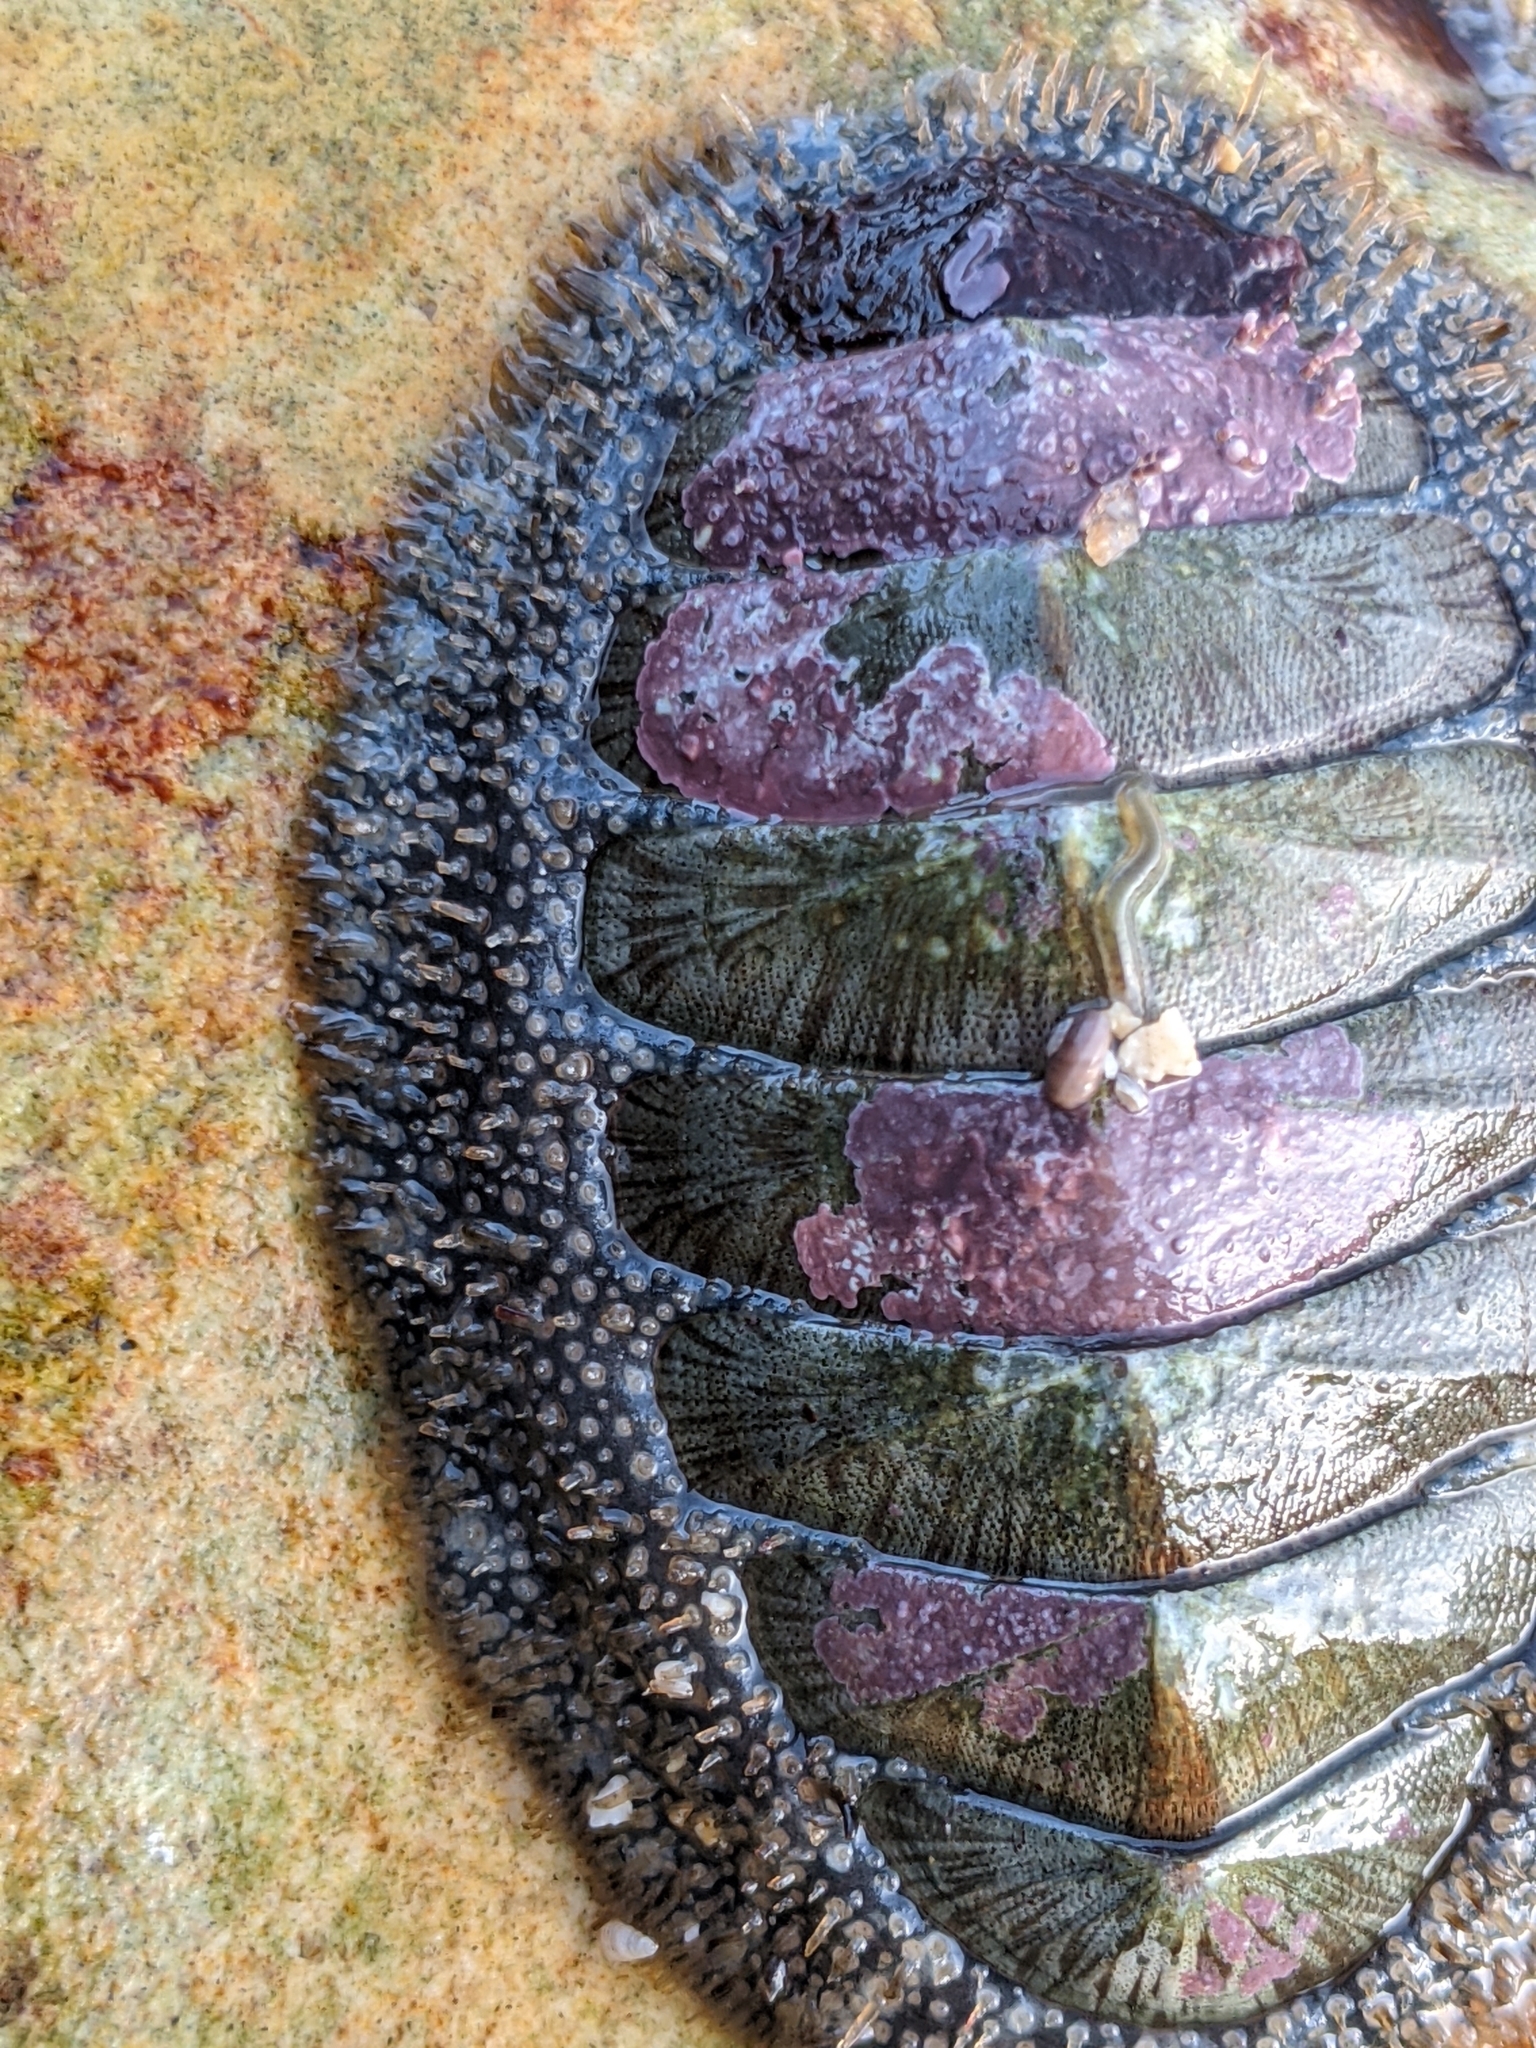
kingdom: Animalia
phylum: Mollusca
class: Polyplacophora
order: Chitonida
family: Mopaliidae
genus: Mopalia
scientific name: Mopalia lignosa
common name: Woody chiton
